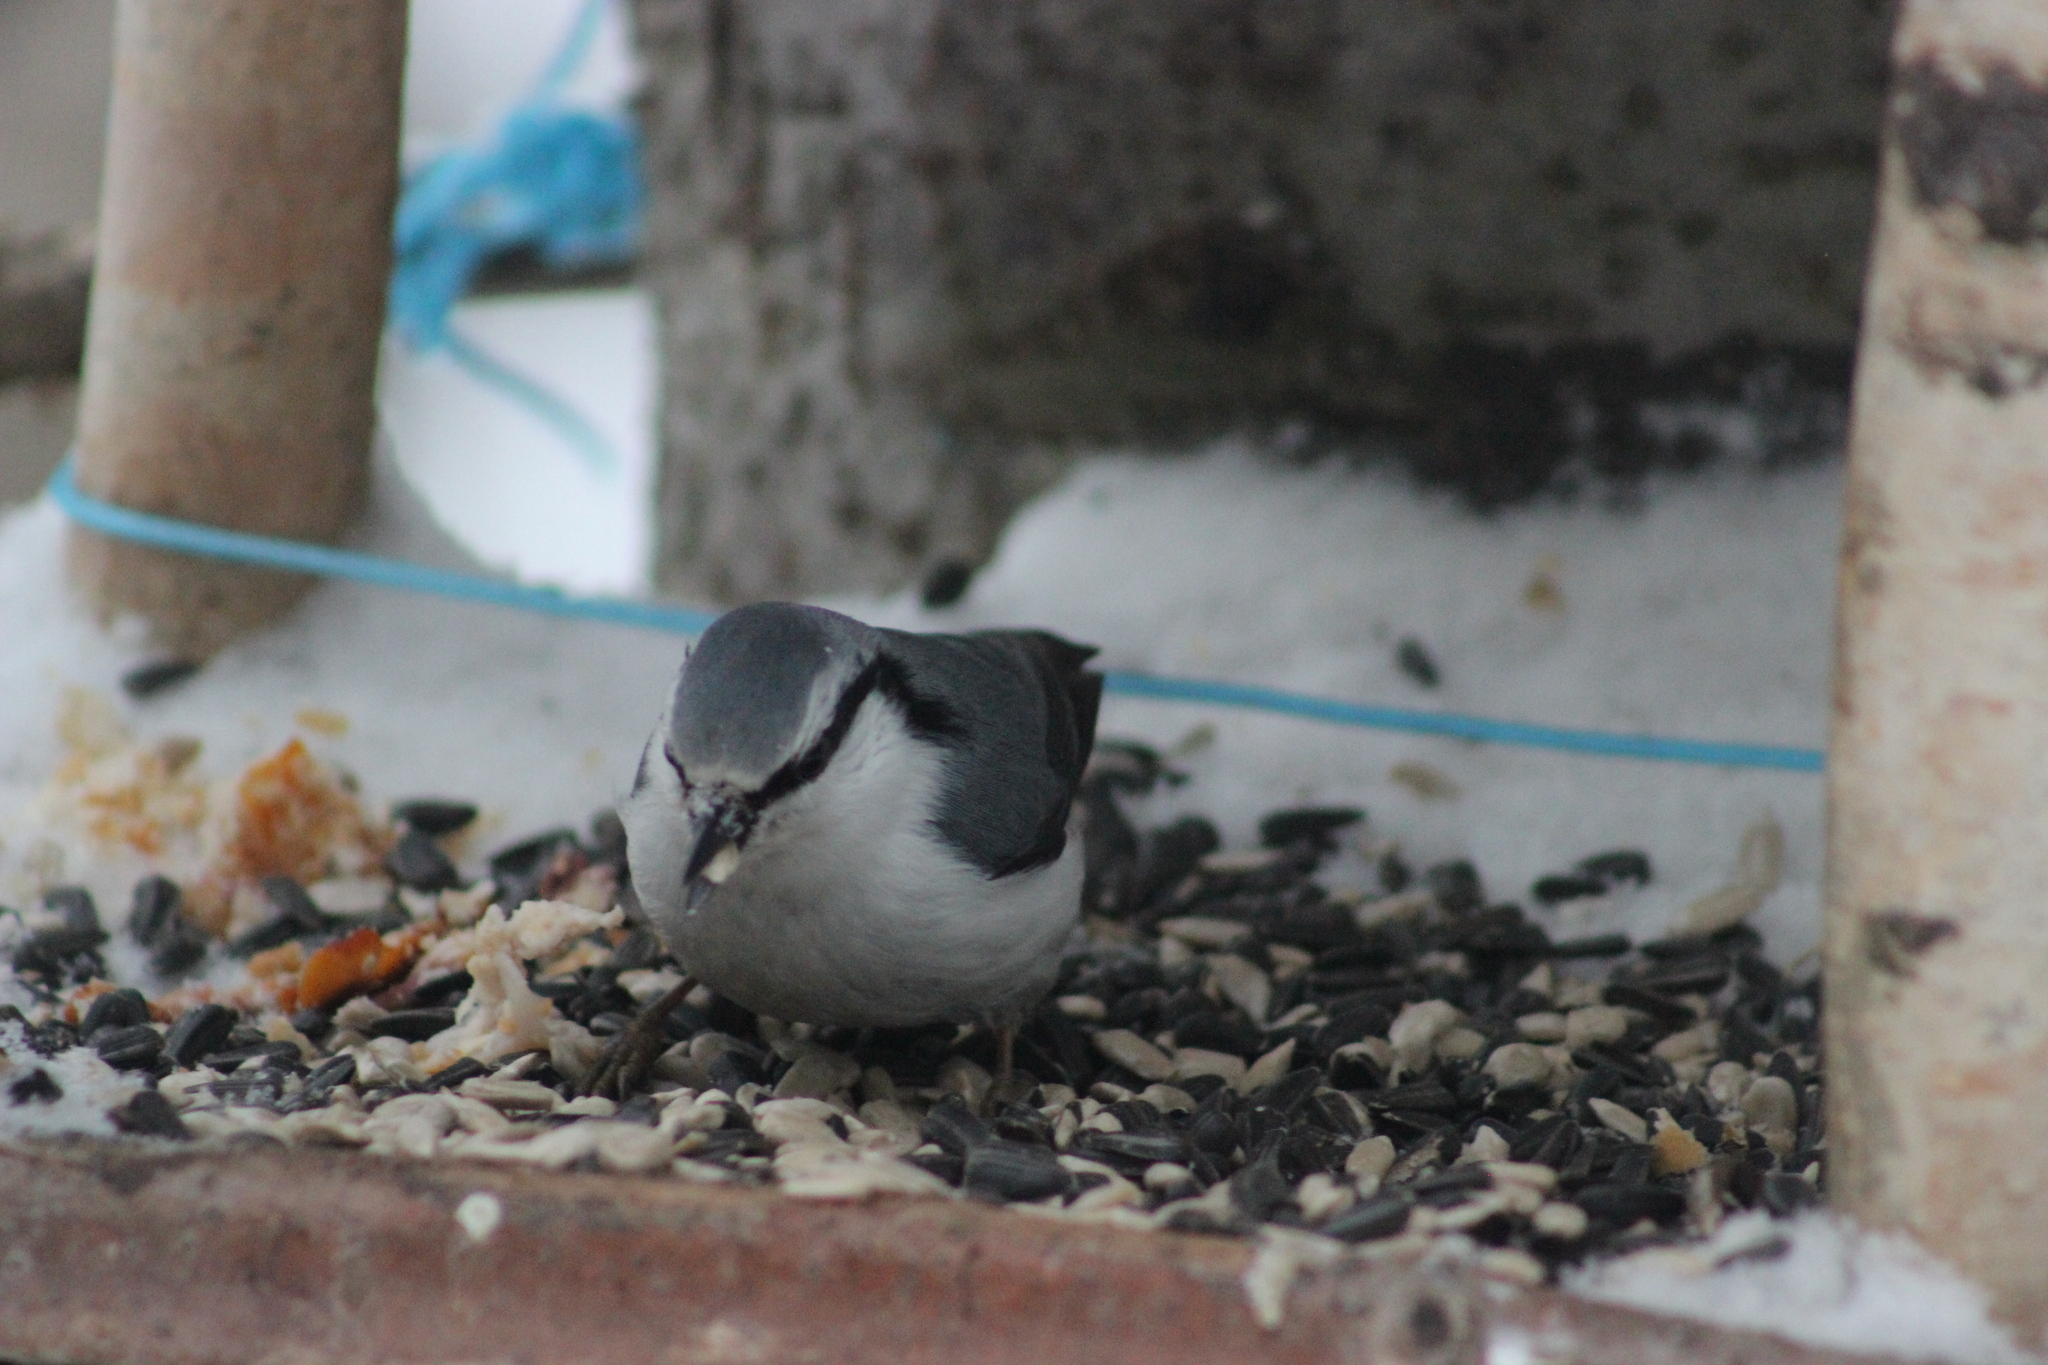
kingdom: Animalia
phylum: Chordata
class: Aves
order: Passeriformes
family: Sittidae
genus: Sitta
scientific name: Sitta europaea
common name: Eurasian nuthatch
